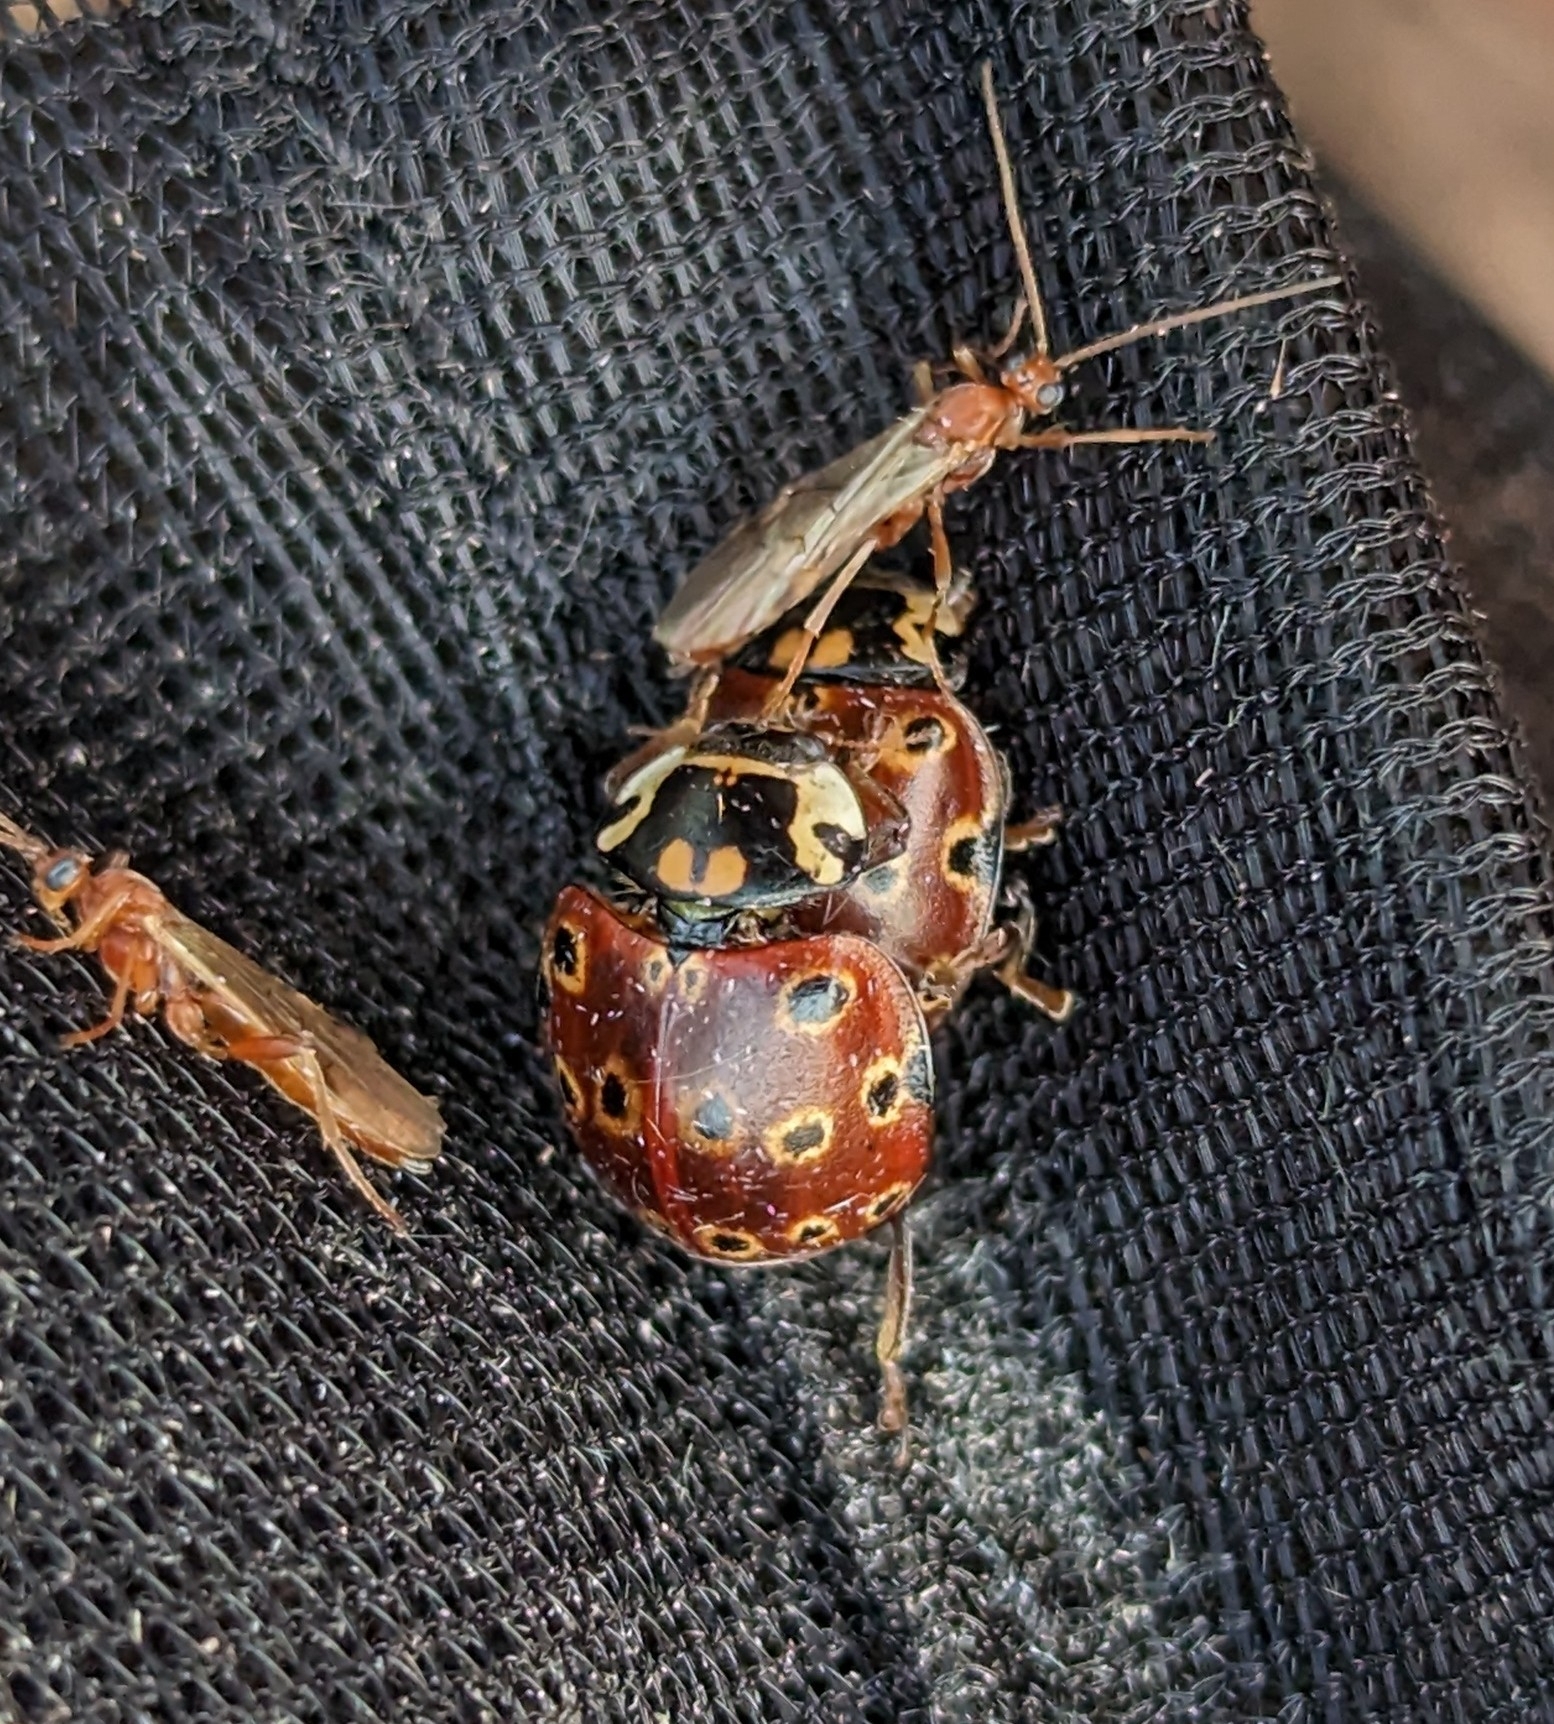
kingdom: Animalia
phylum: Arthropoda
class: Insecta
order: Coleoptera
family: Coccinellidae
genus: Anatis
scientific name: Anatis mali
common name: Eye-spotted lady beetle
